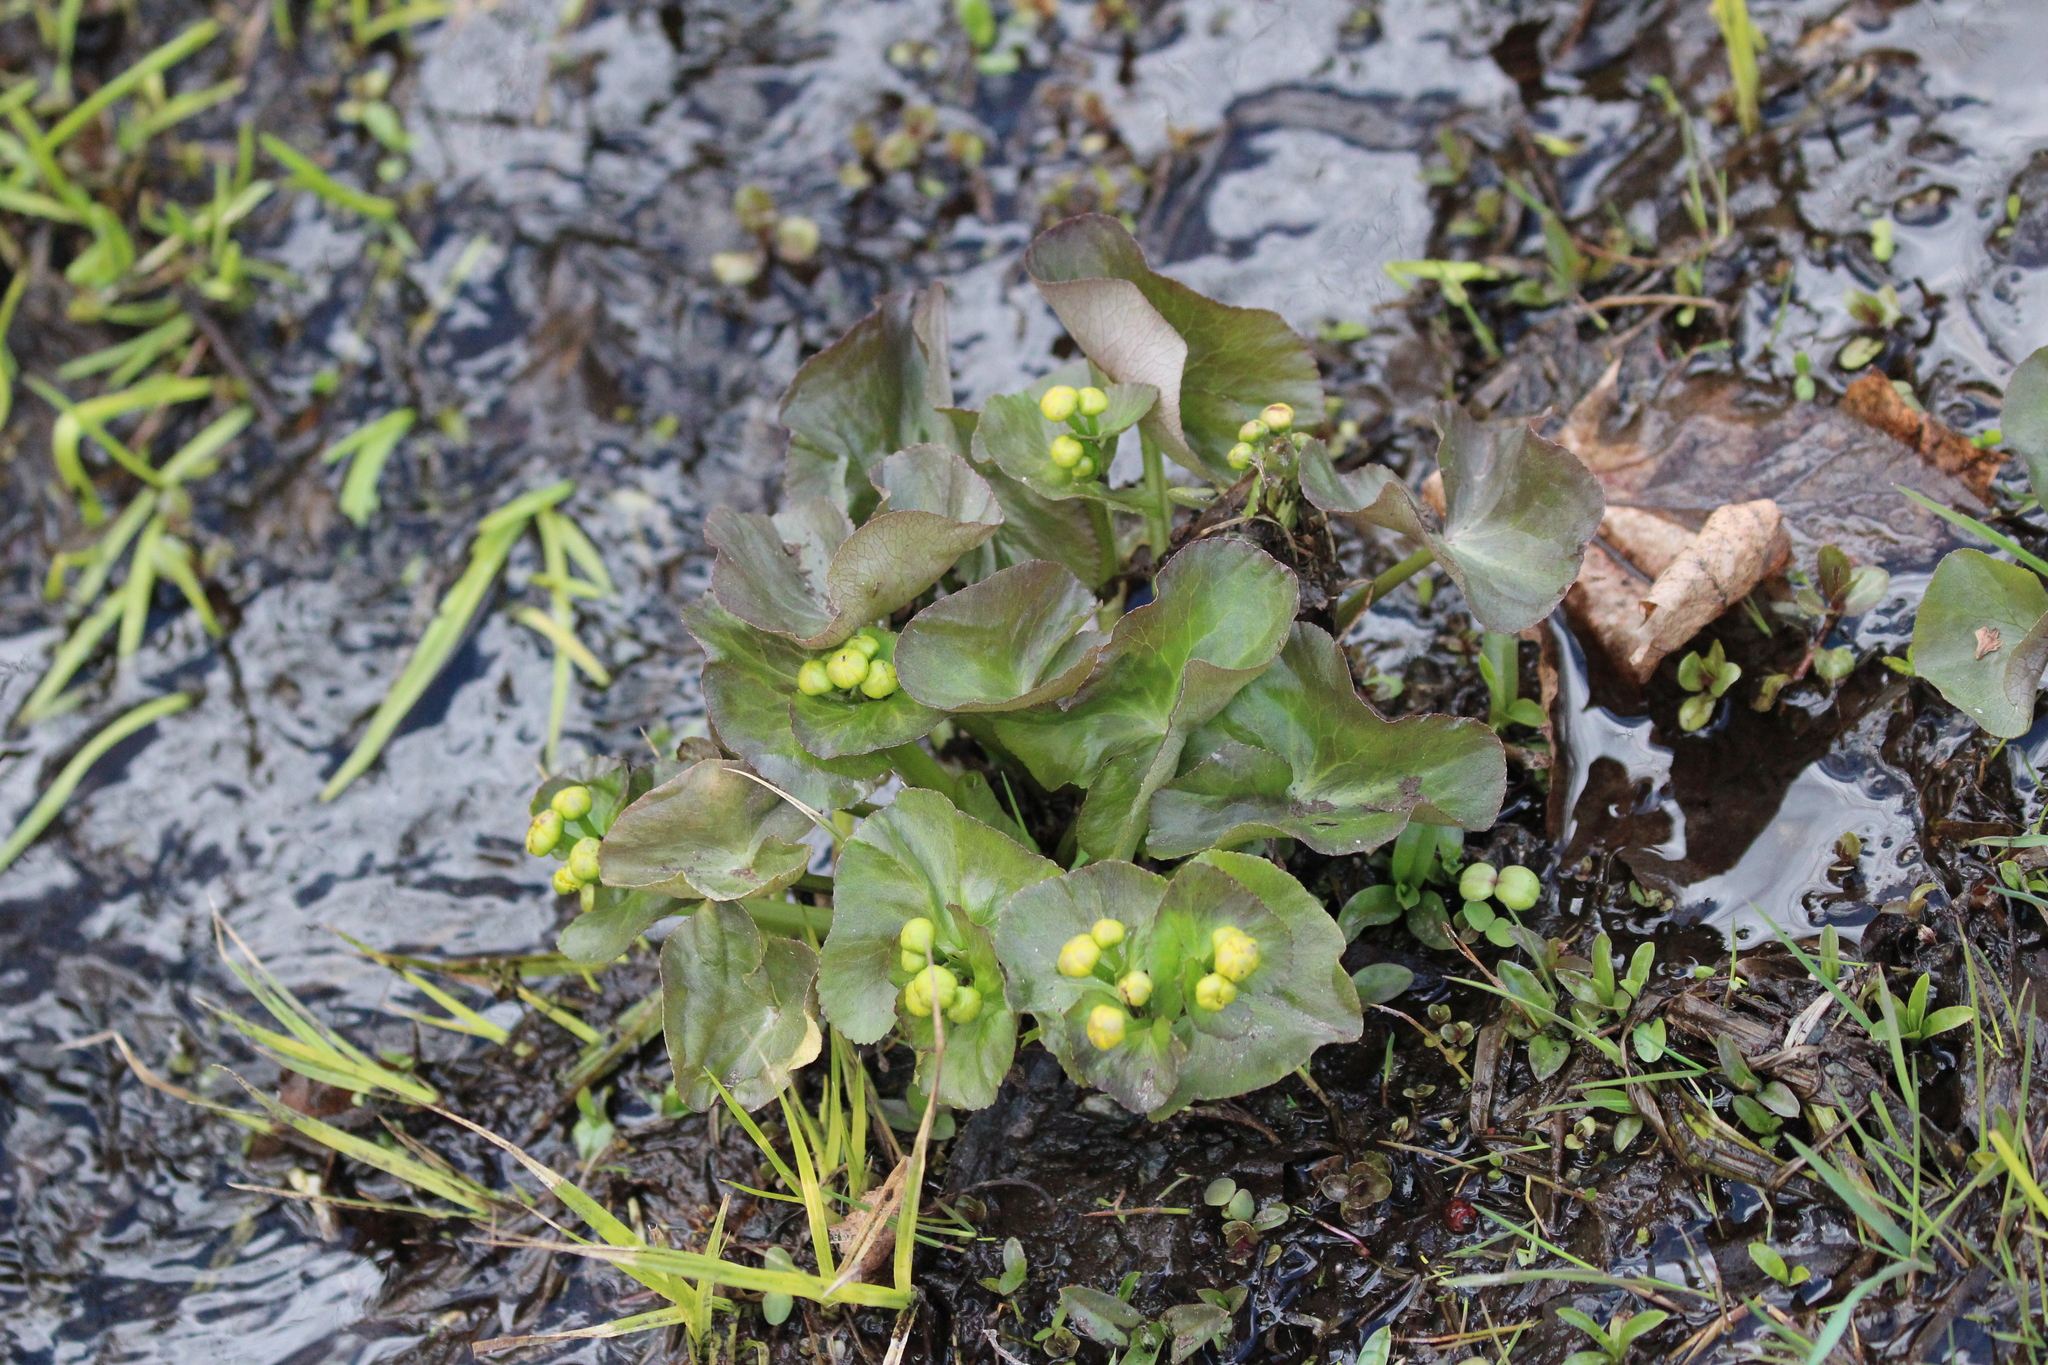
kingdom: Plantae
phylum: Tracheophyta
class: Magnoliopsida
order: Ranunculales
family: Ranunculaceae
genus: Caltha
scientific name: Caltha palustris
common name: Marsh marigold
